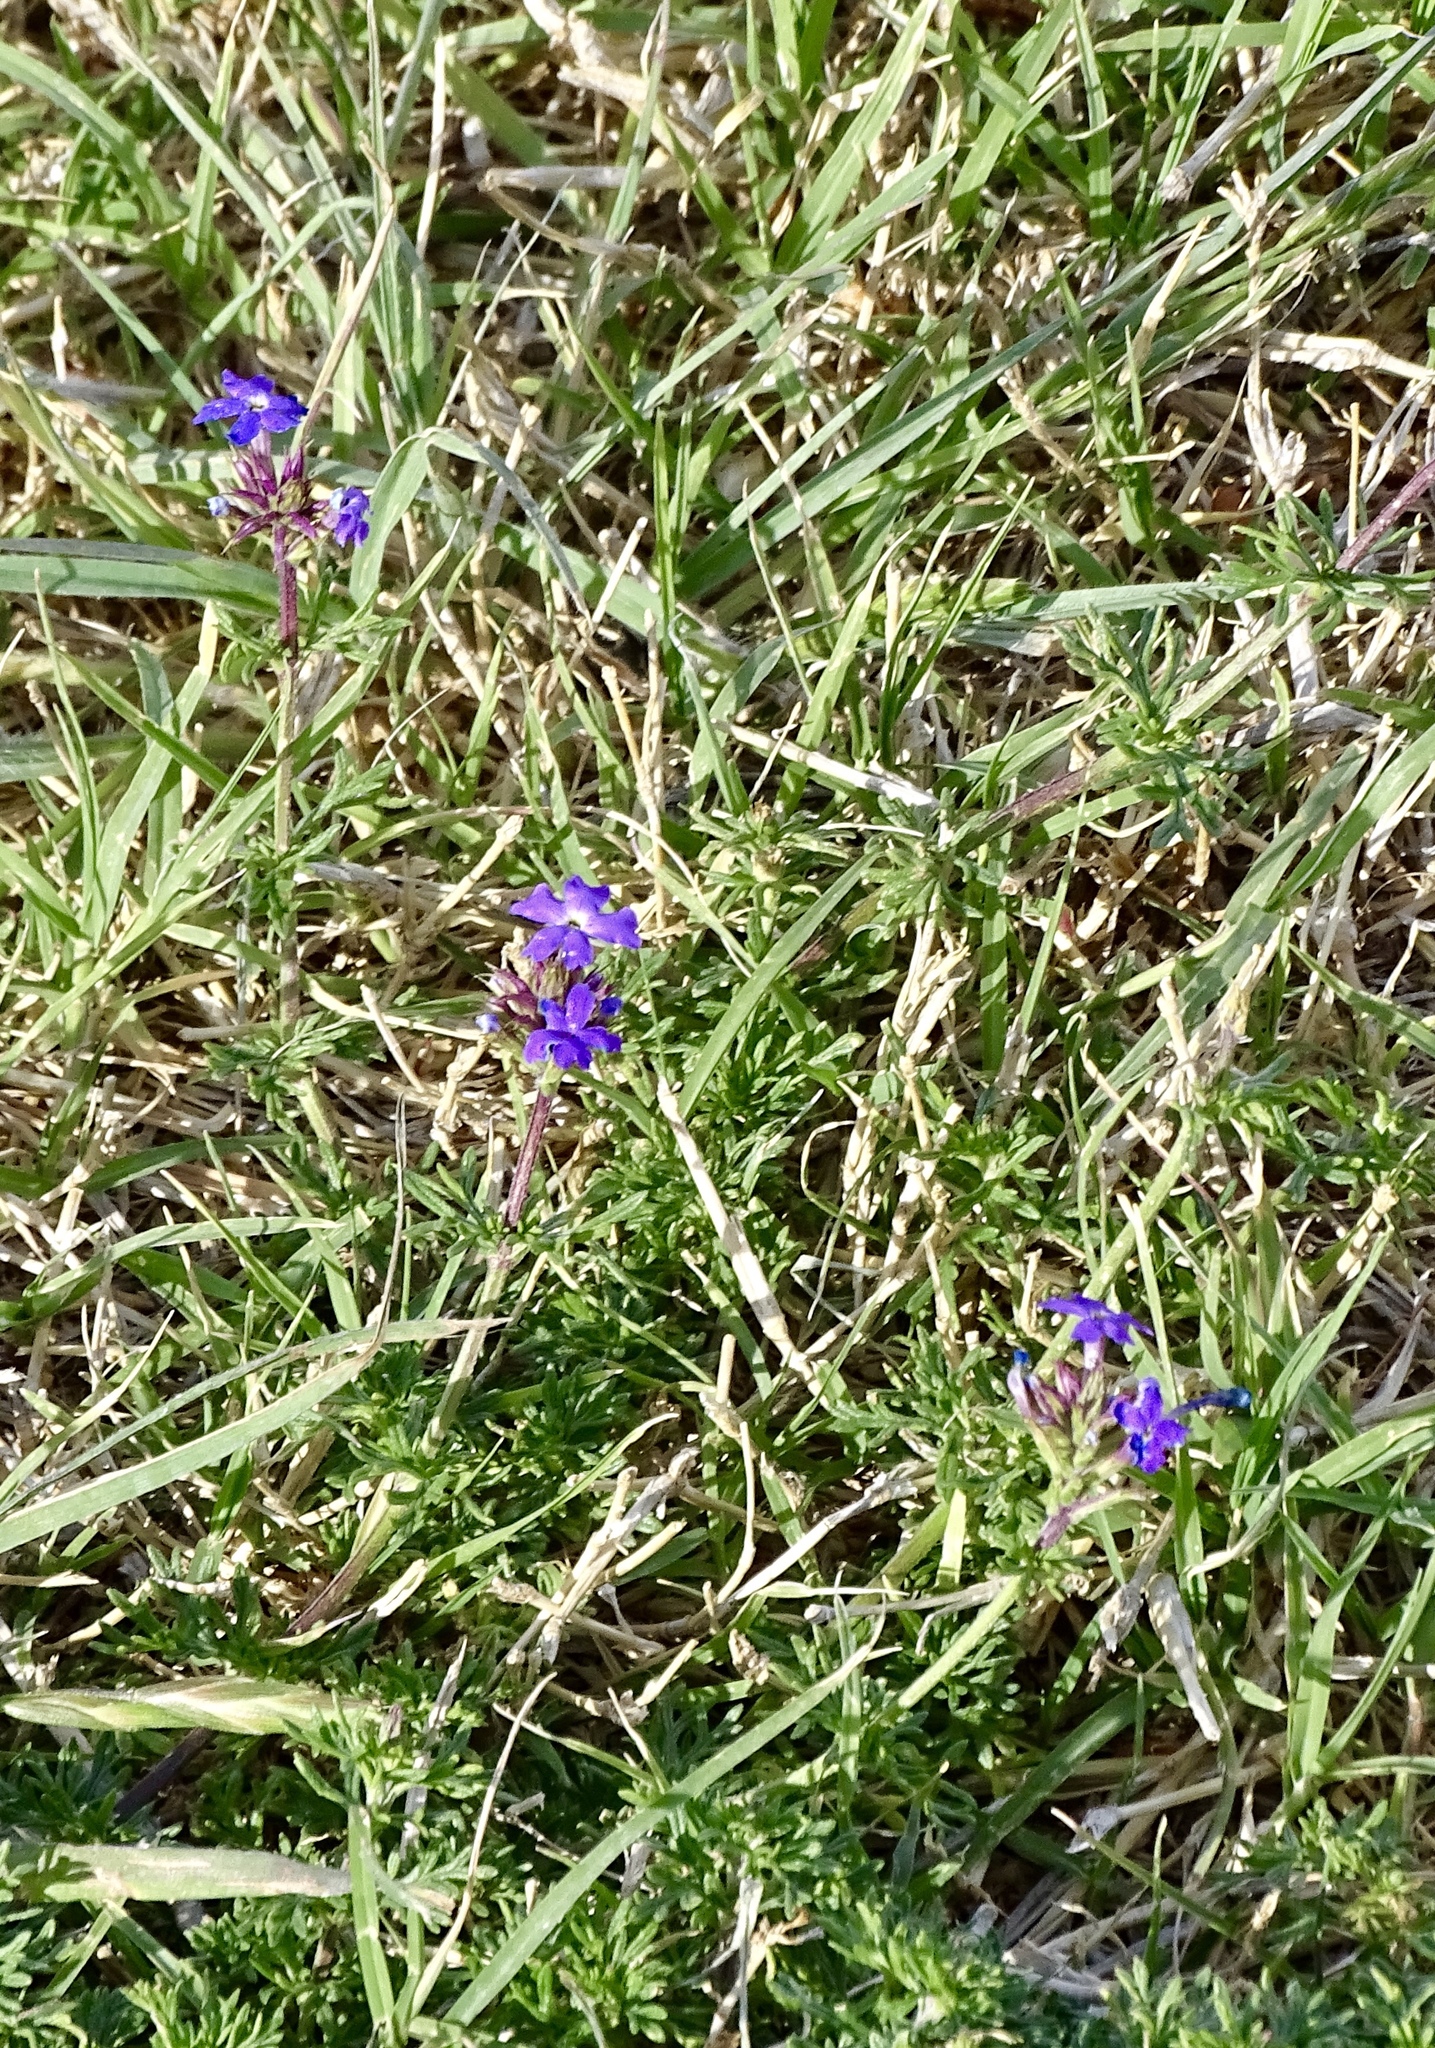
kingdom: Plantae
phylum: Tracheophyta
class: Magnoliopsida
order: Lamiales
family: Verbenaceae
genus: Verbena
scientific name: Verbena
